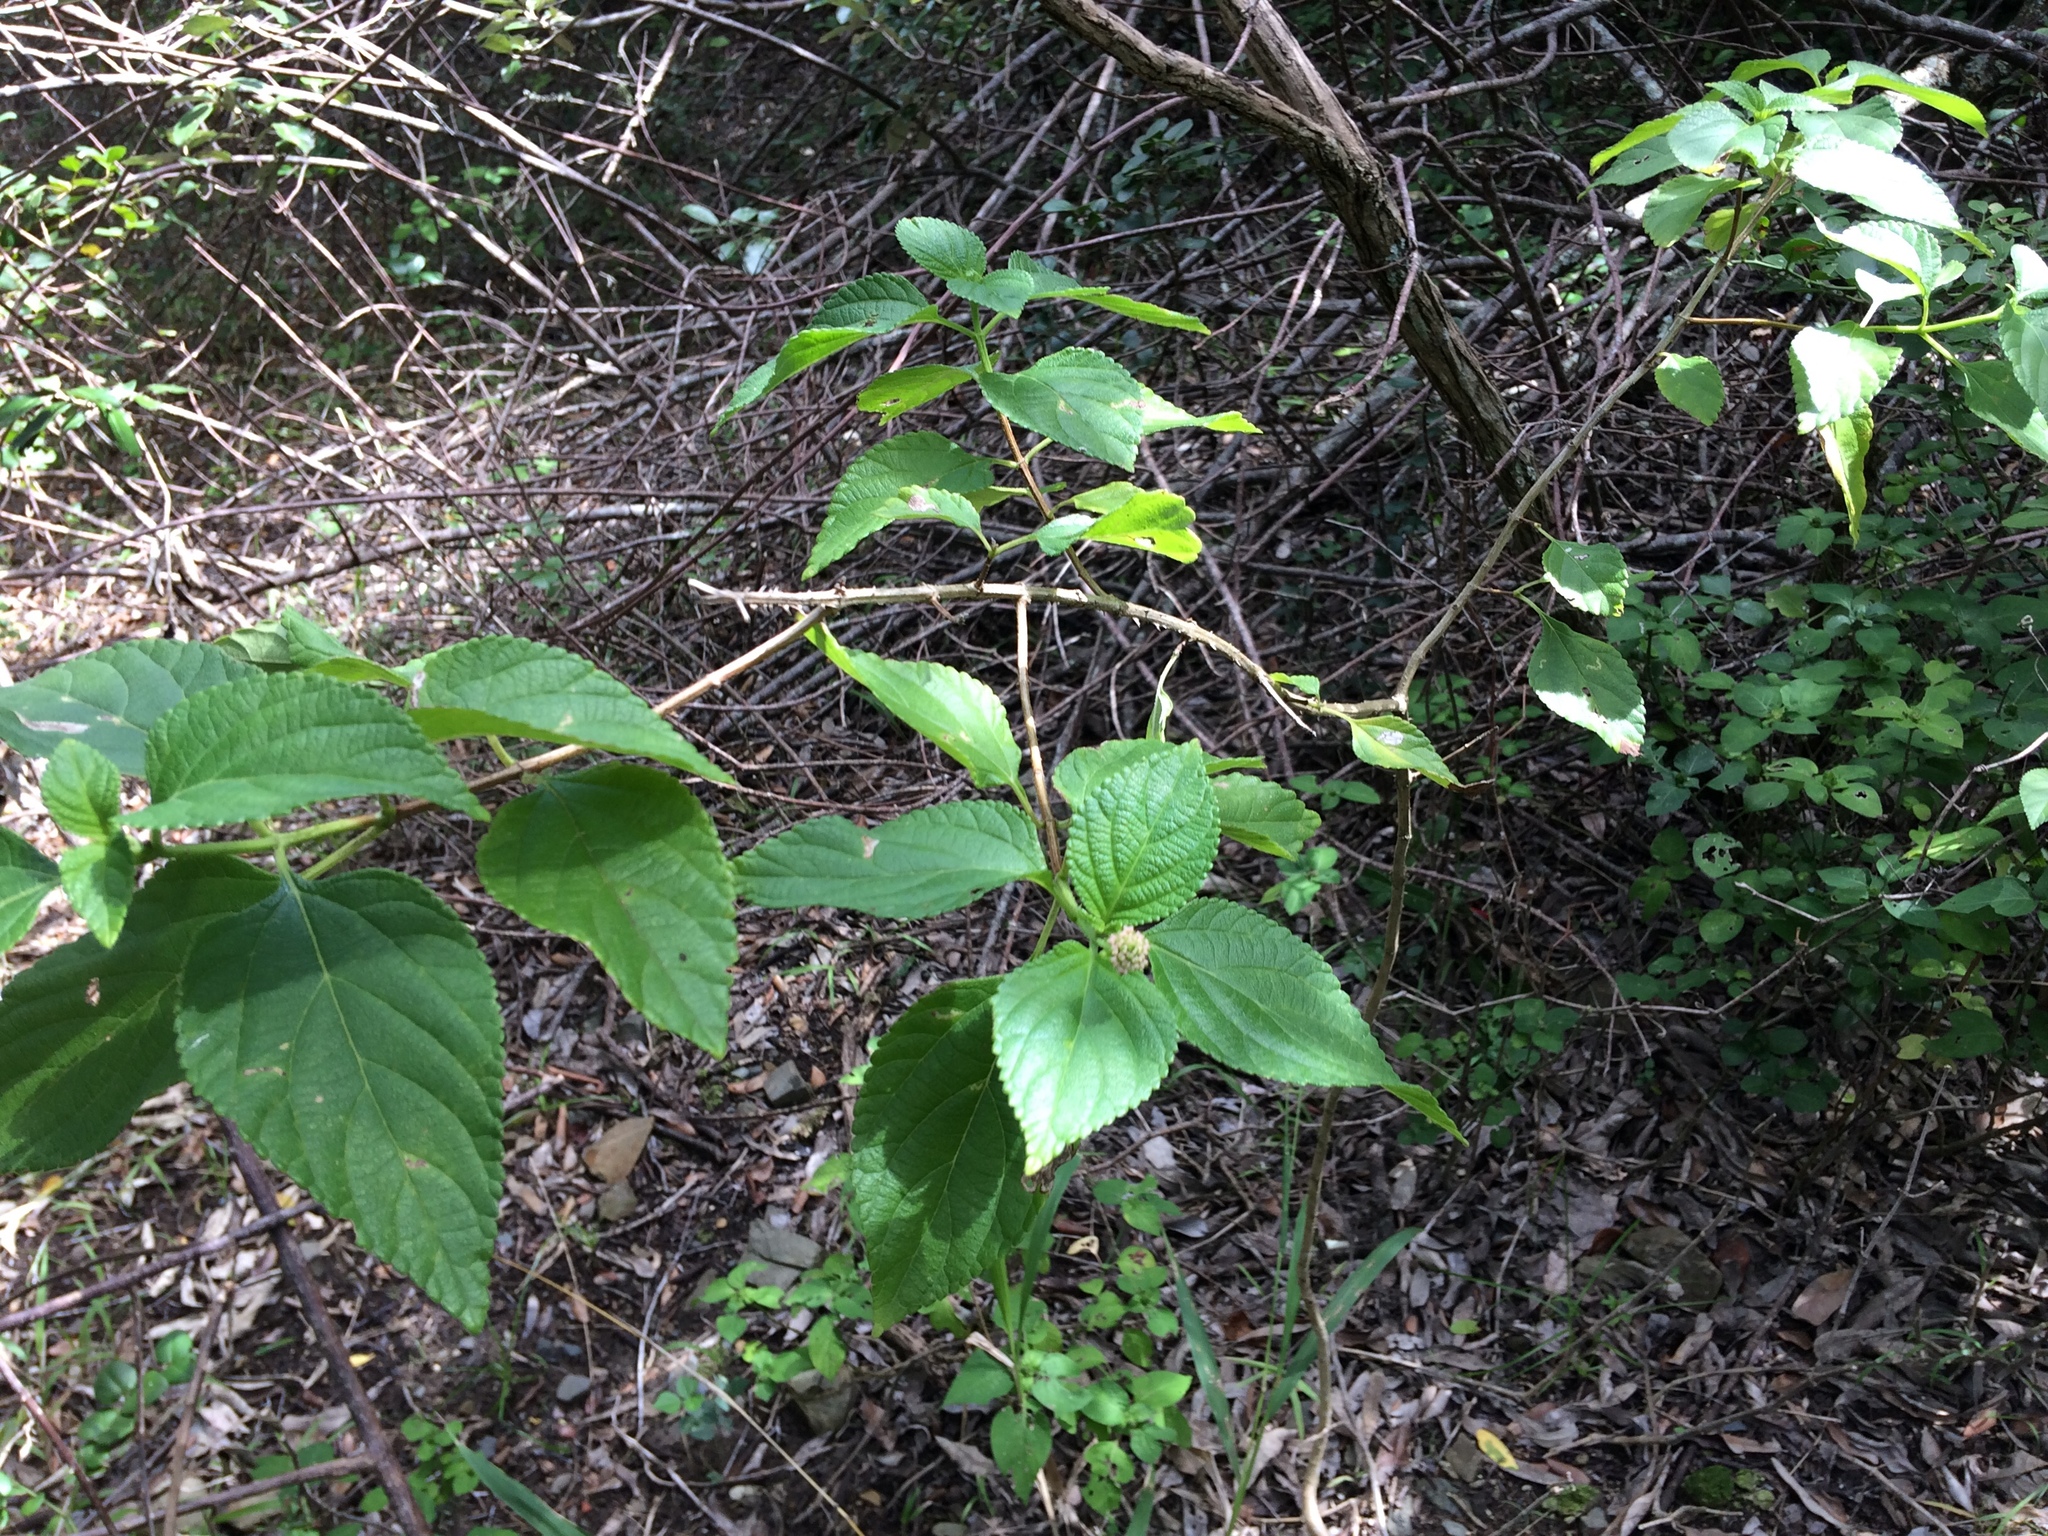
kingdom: Plantae
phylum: Tracheophyta
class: Magnoliopsida
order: Lamiales
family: Verbenaceae
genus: Lantana
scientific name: Lantana camara
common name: Lantana
